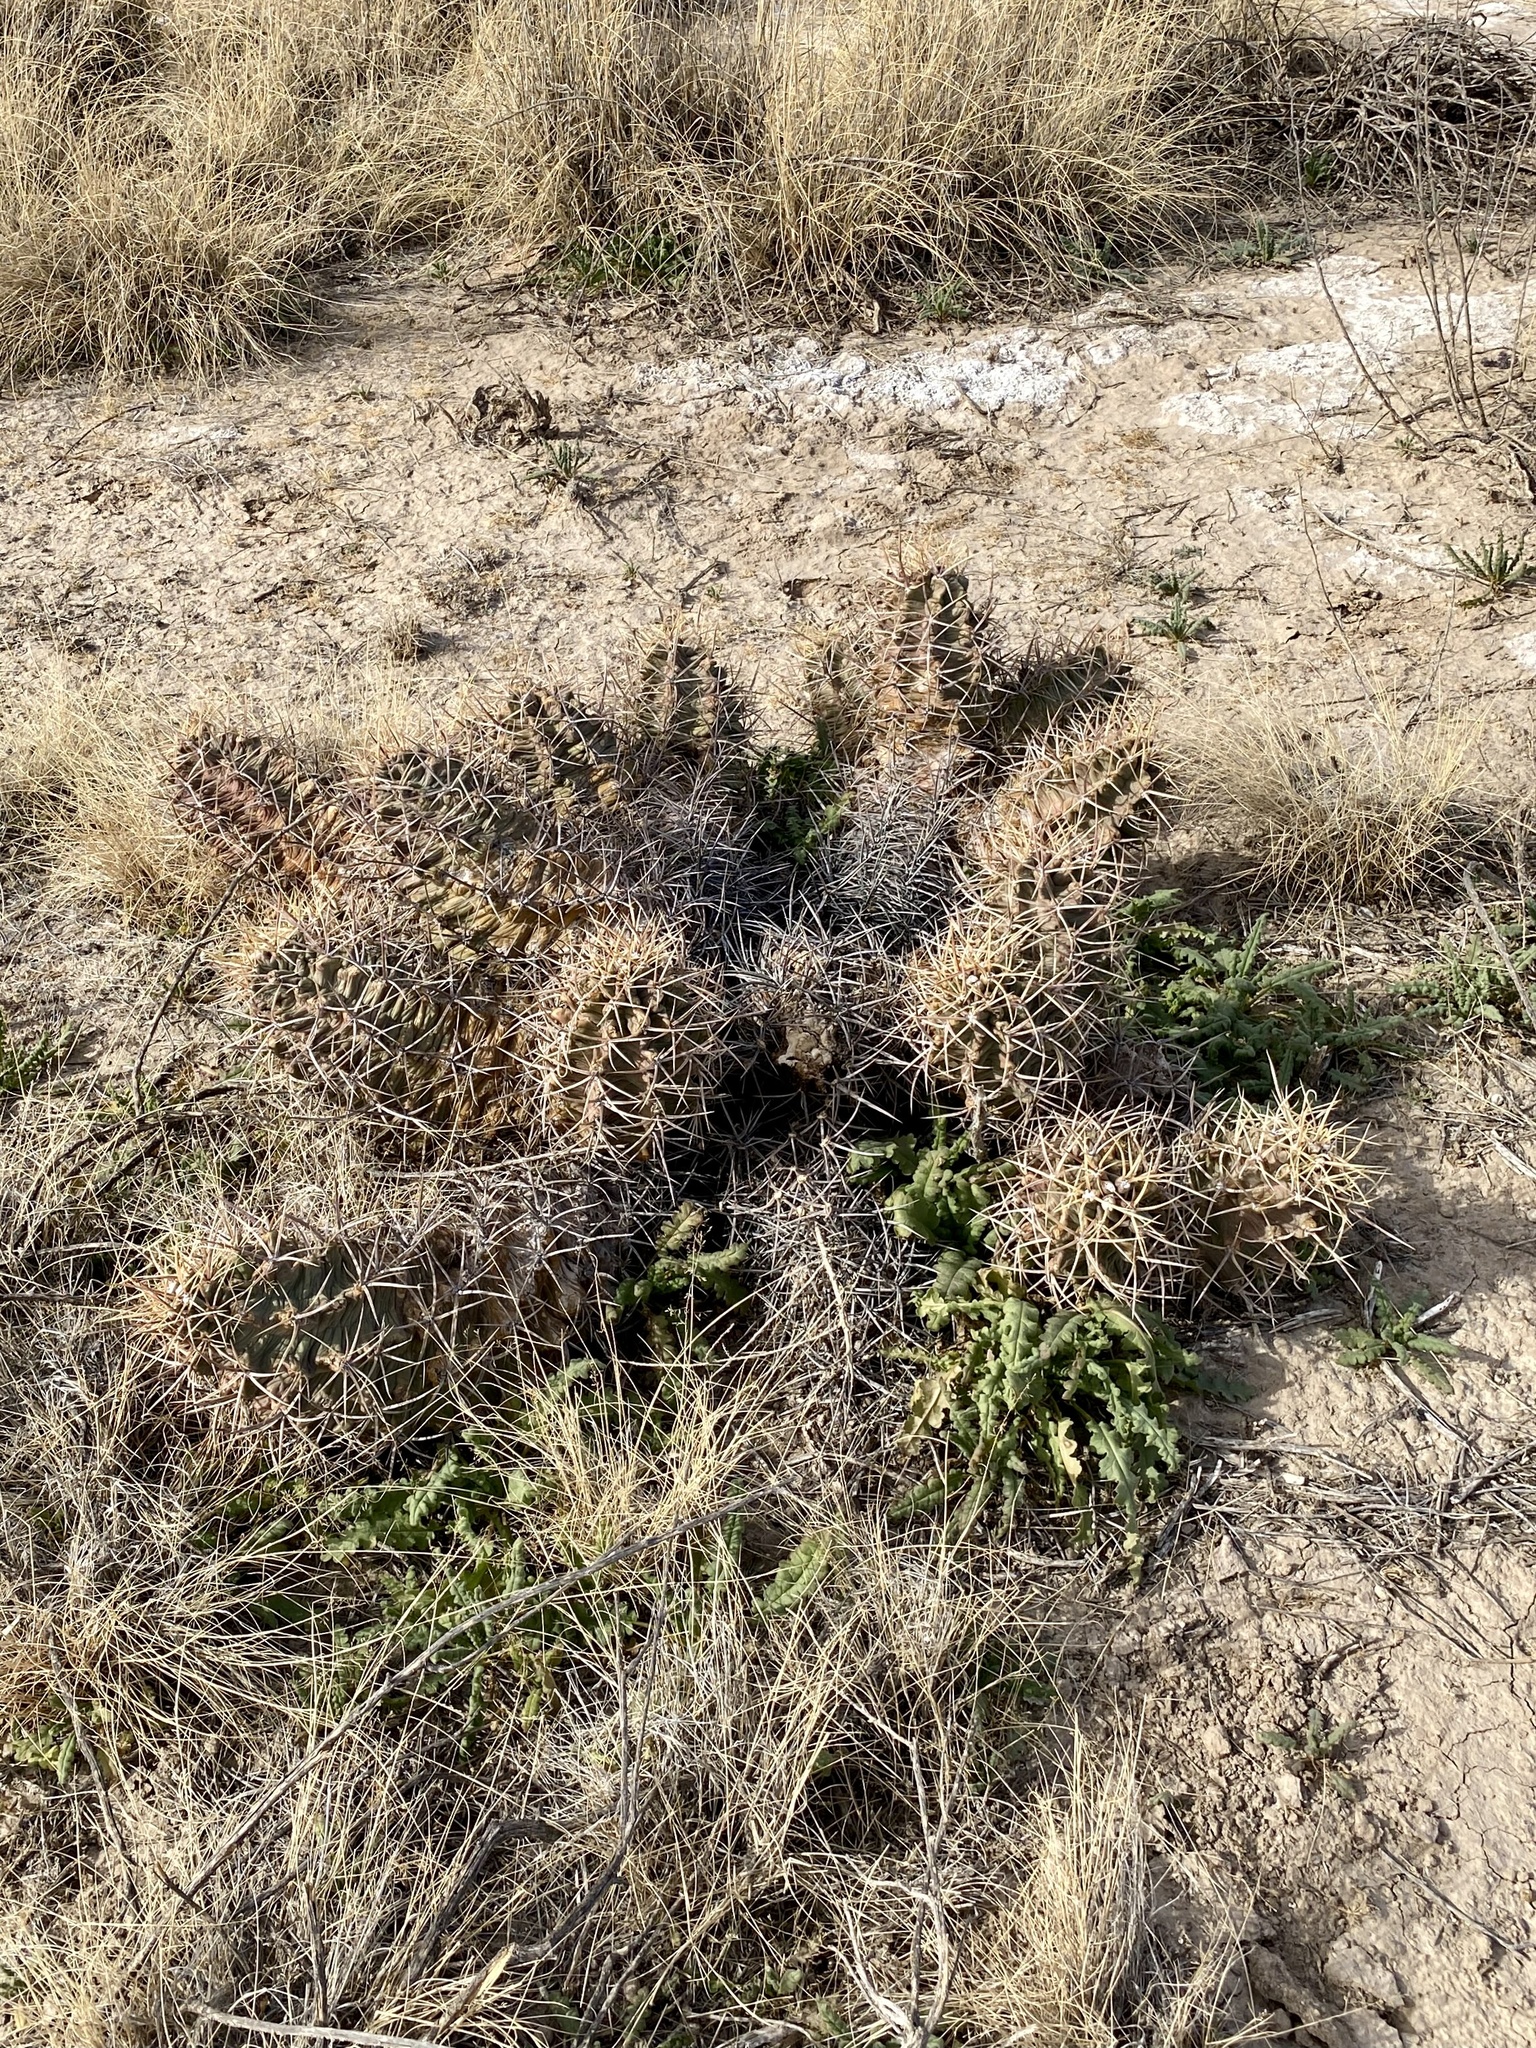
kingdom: Plantae
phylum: Tracheophyta
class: Magnoliopsida
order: Caryophyllales
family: Cactaceae
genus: Echinocereus
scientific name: Echinocereus triglochidiatus
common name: Claretcup hedgehog
